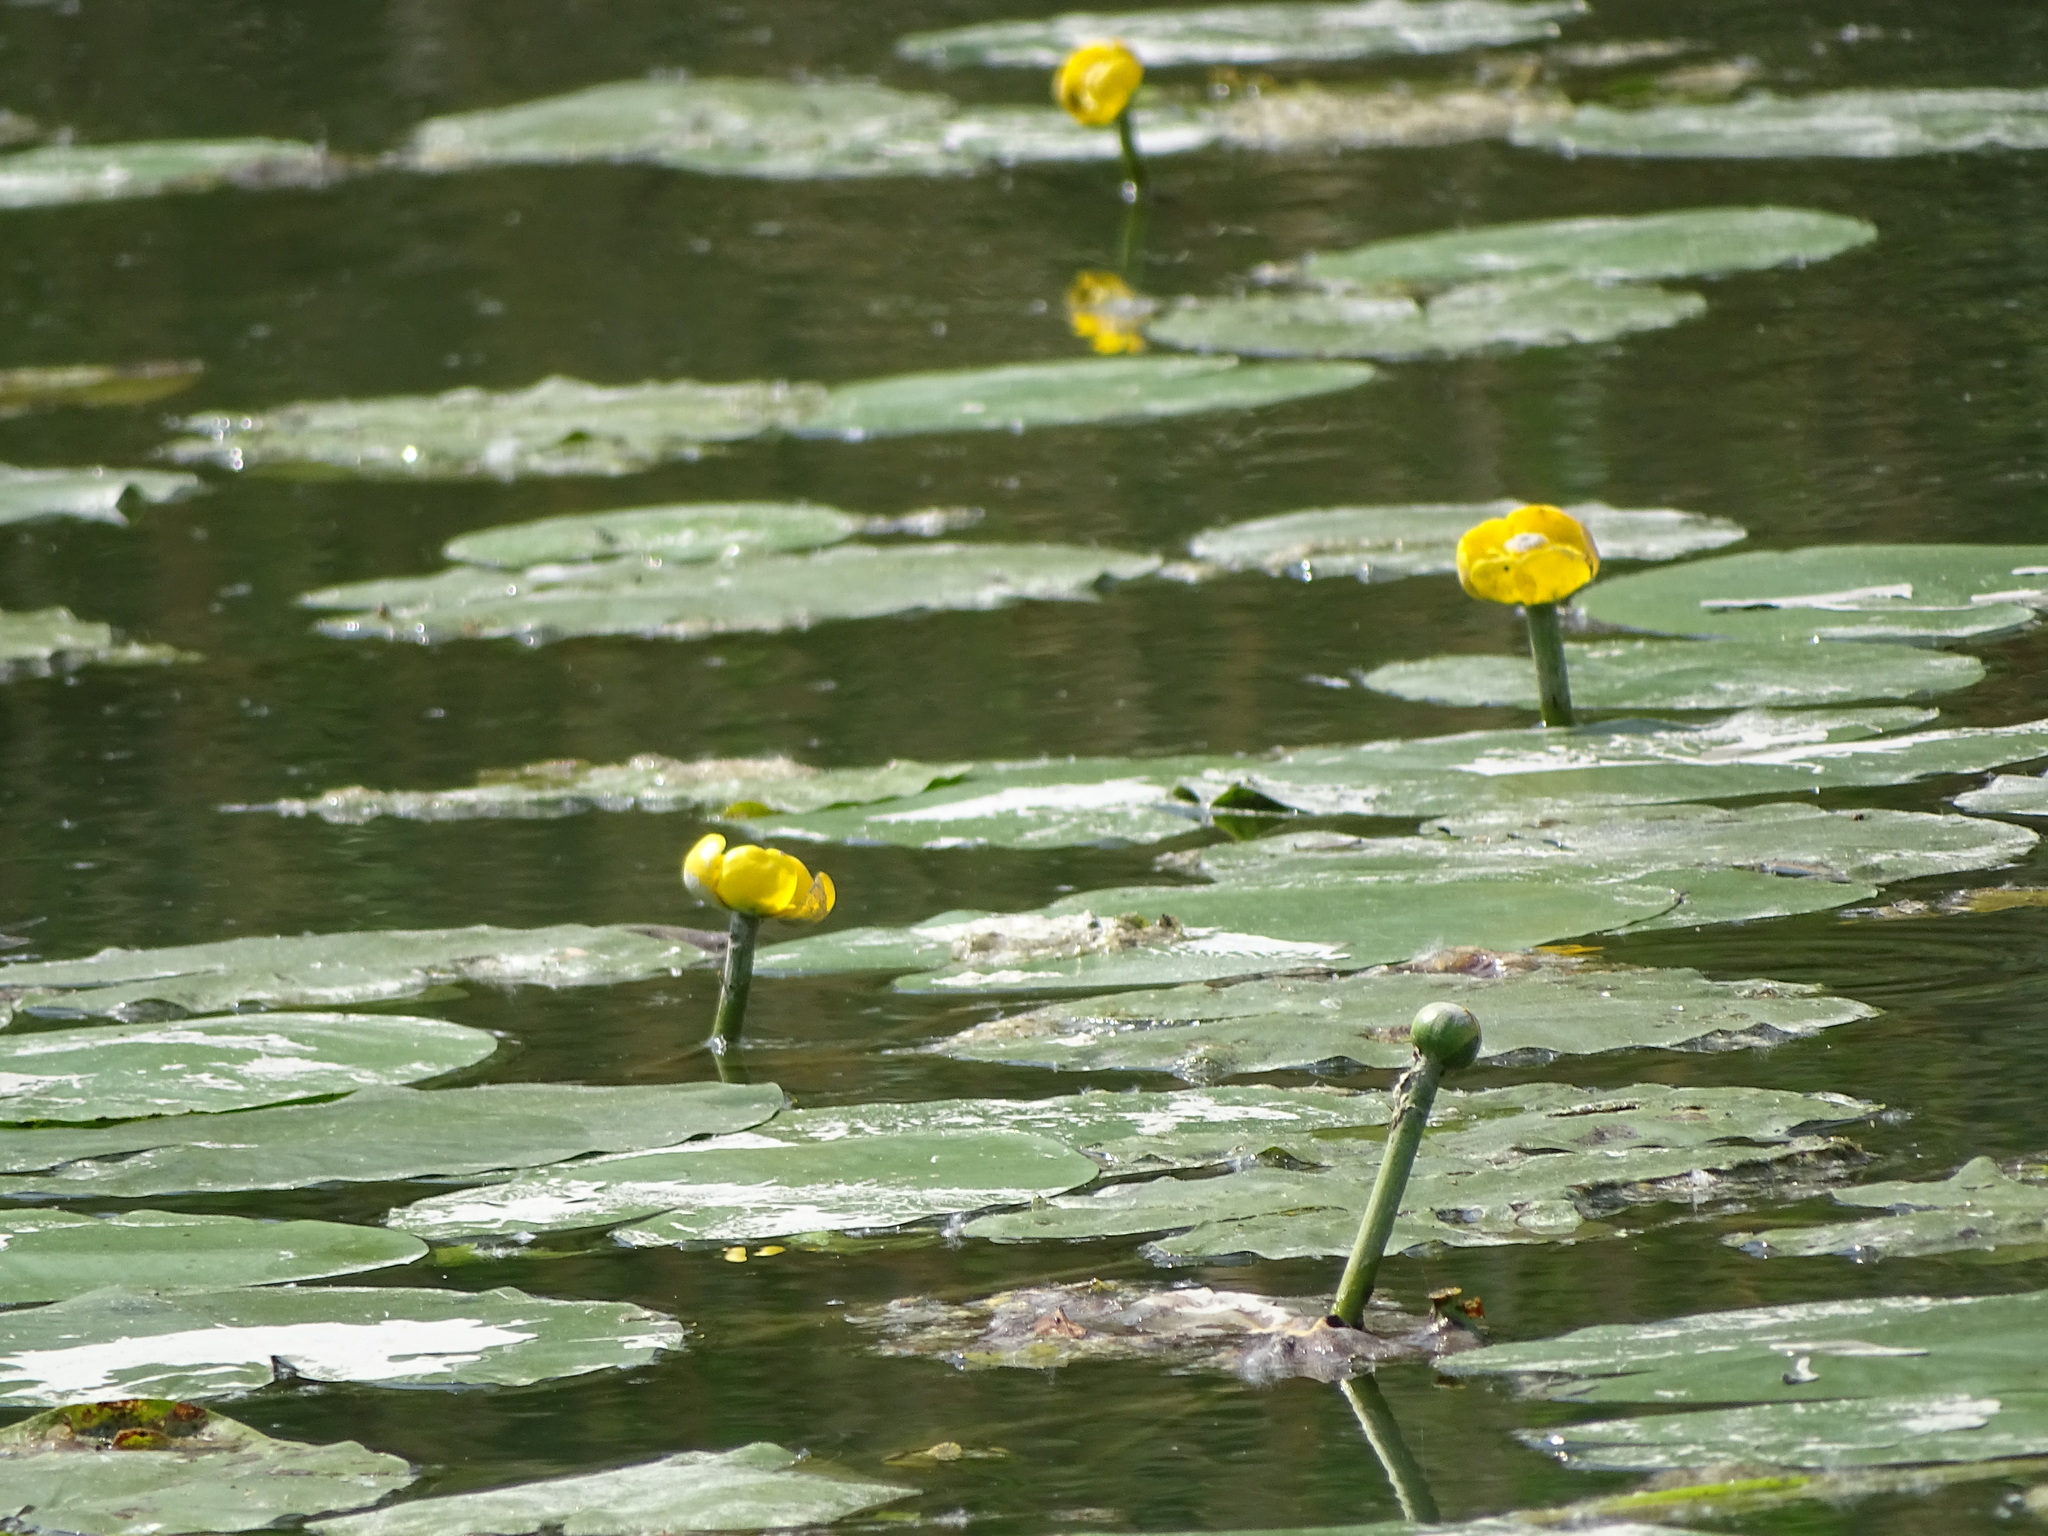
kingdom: Plantae
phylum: Tracheophyta
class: Magnoliopsida
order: Nymphaeales
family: Nymphaeaceae
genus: Nuphar
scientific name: Nuphar lutea
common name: Yellow water-lily
